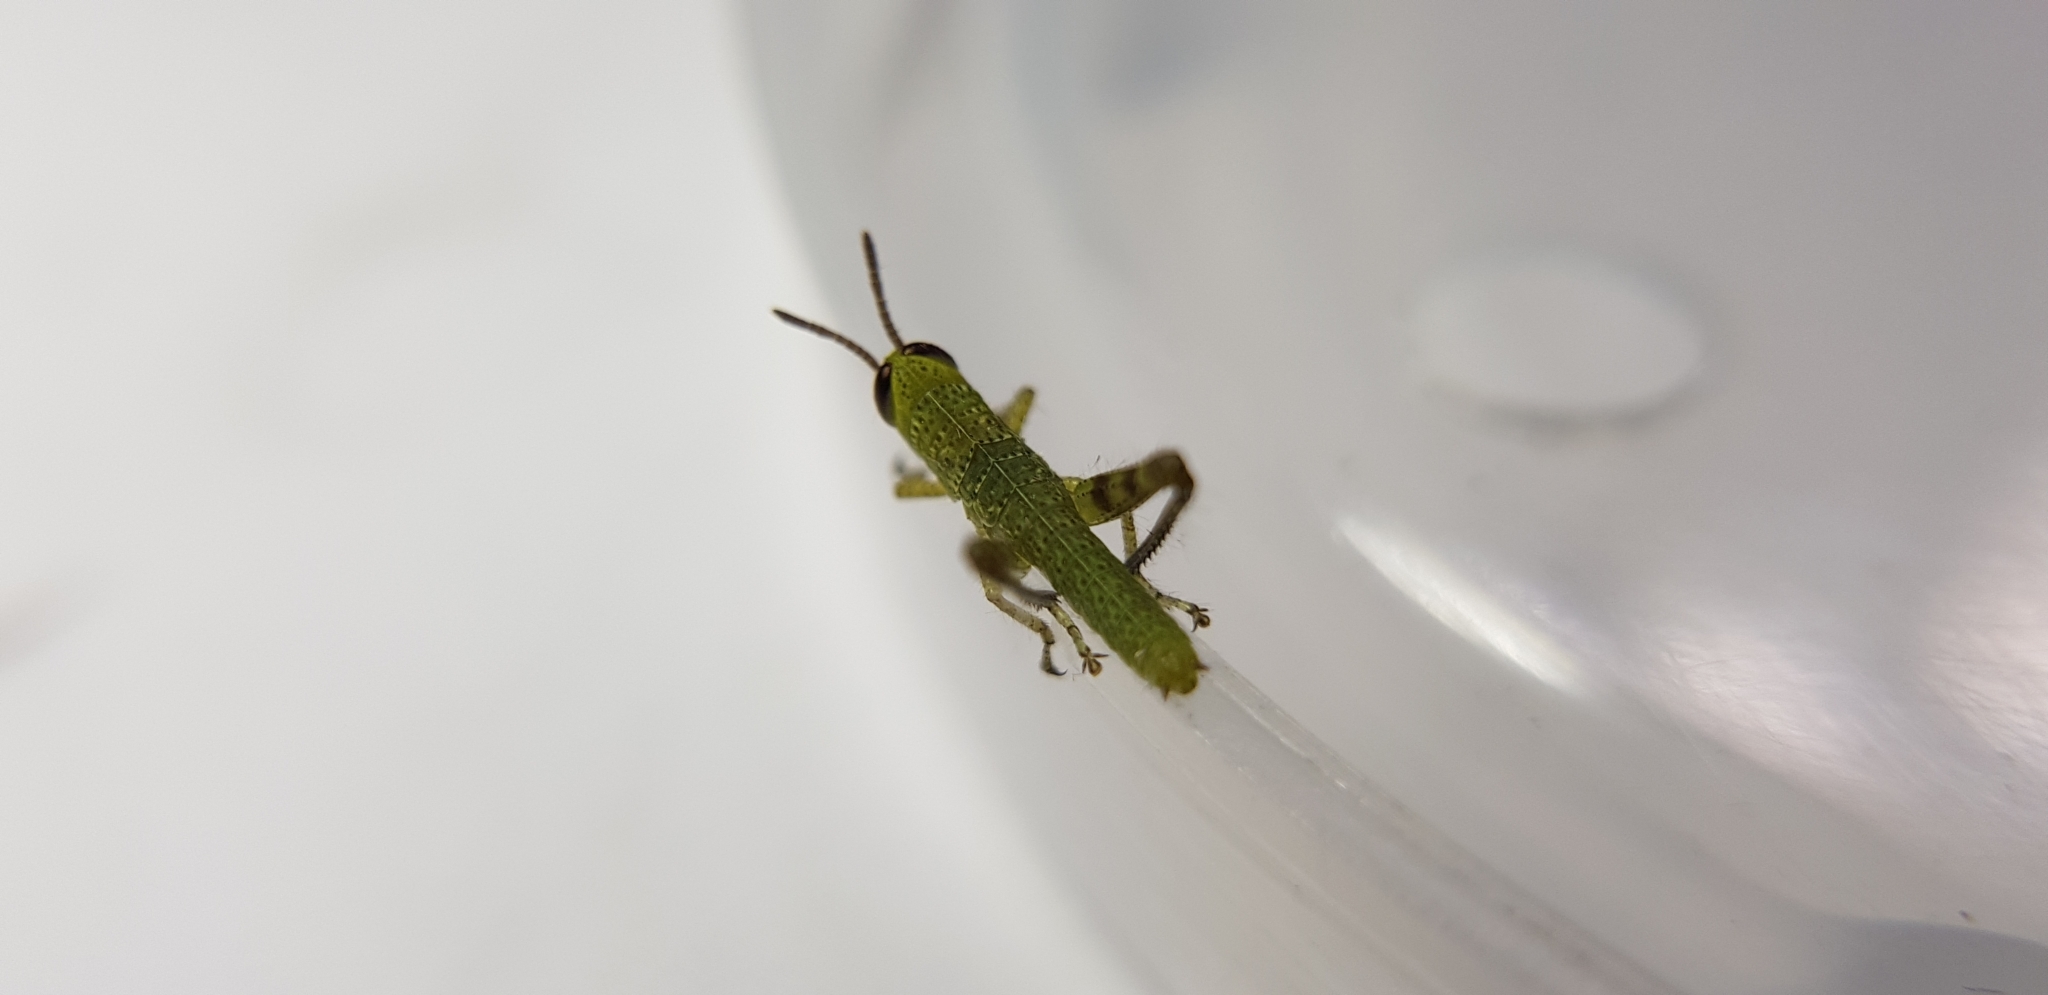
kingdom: Animalia
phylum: Arthropoda
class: Insecta
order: Orthoptera
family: Acrididae
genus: Valanga
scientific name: Valanga irregularis
